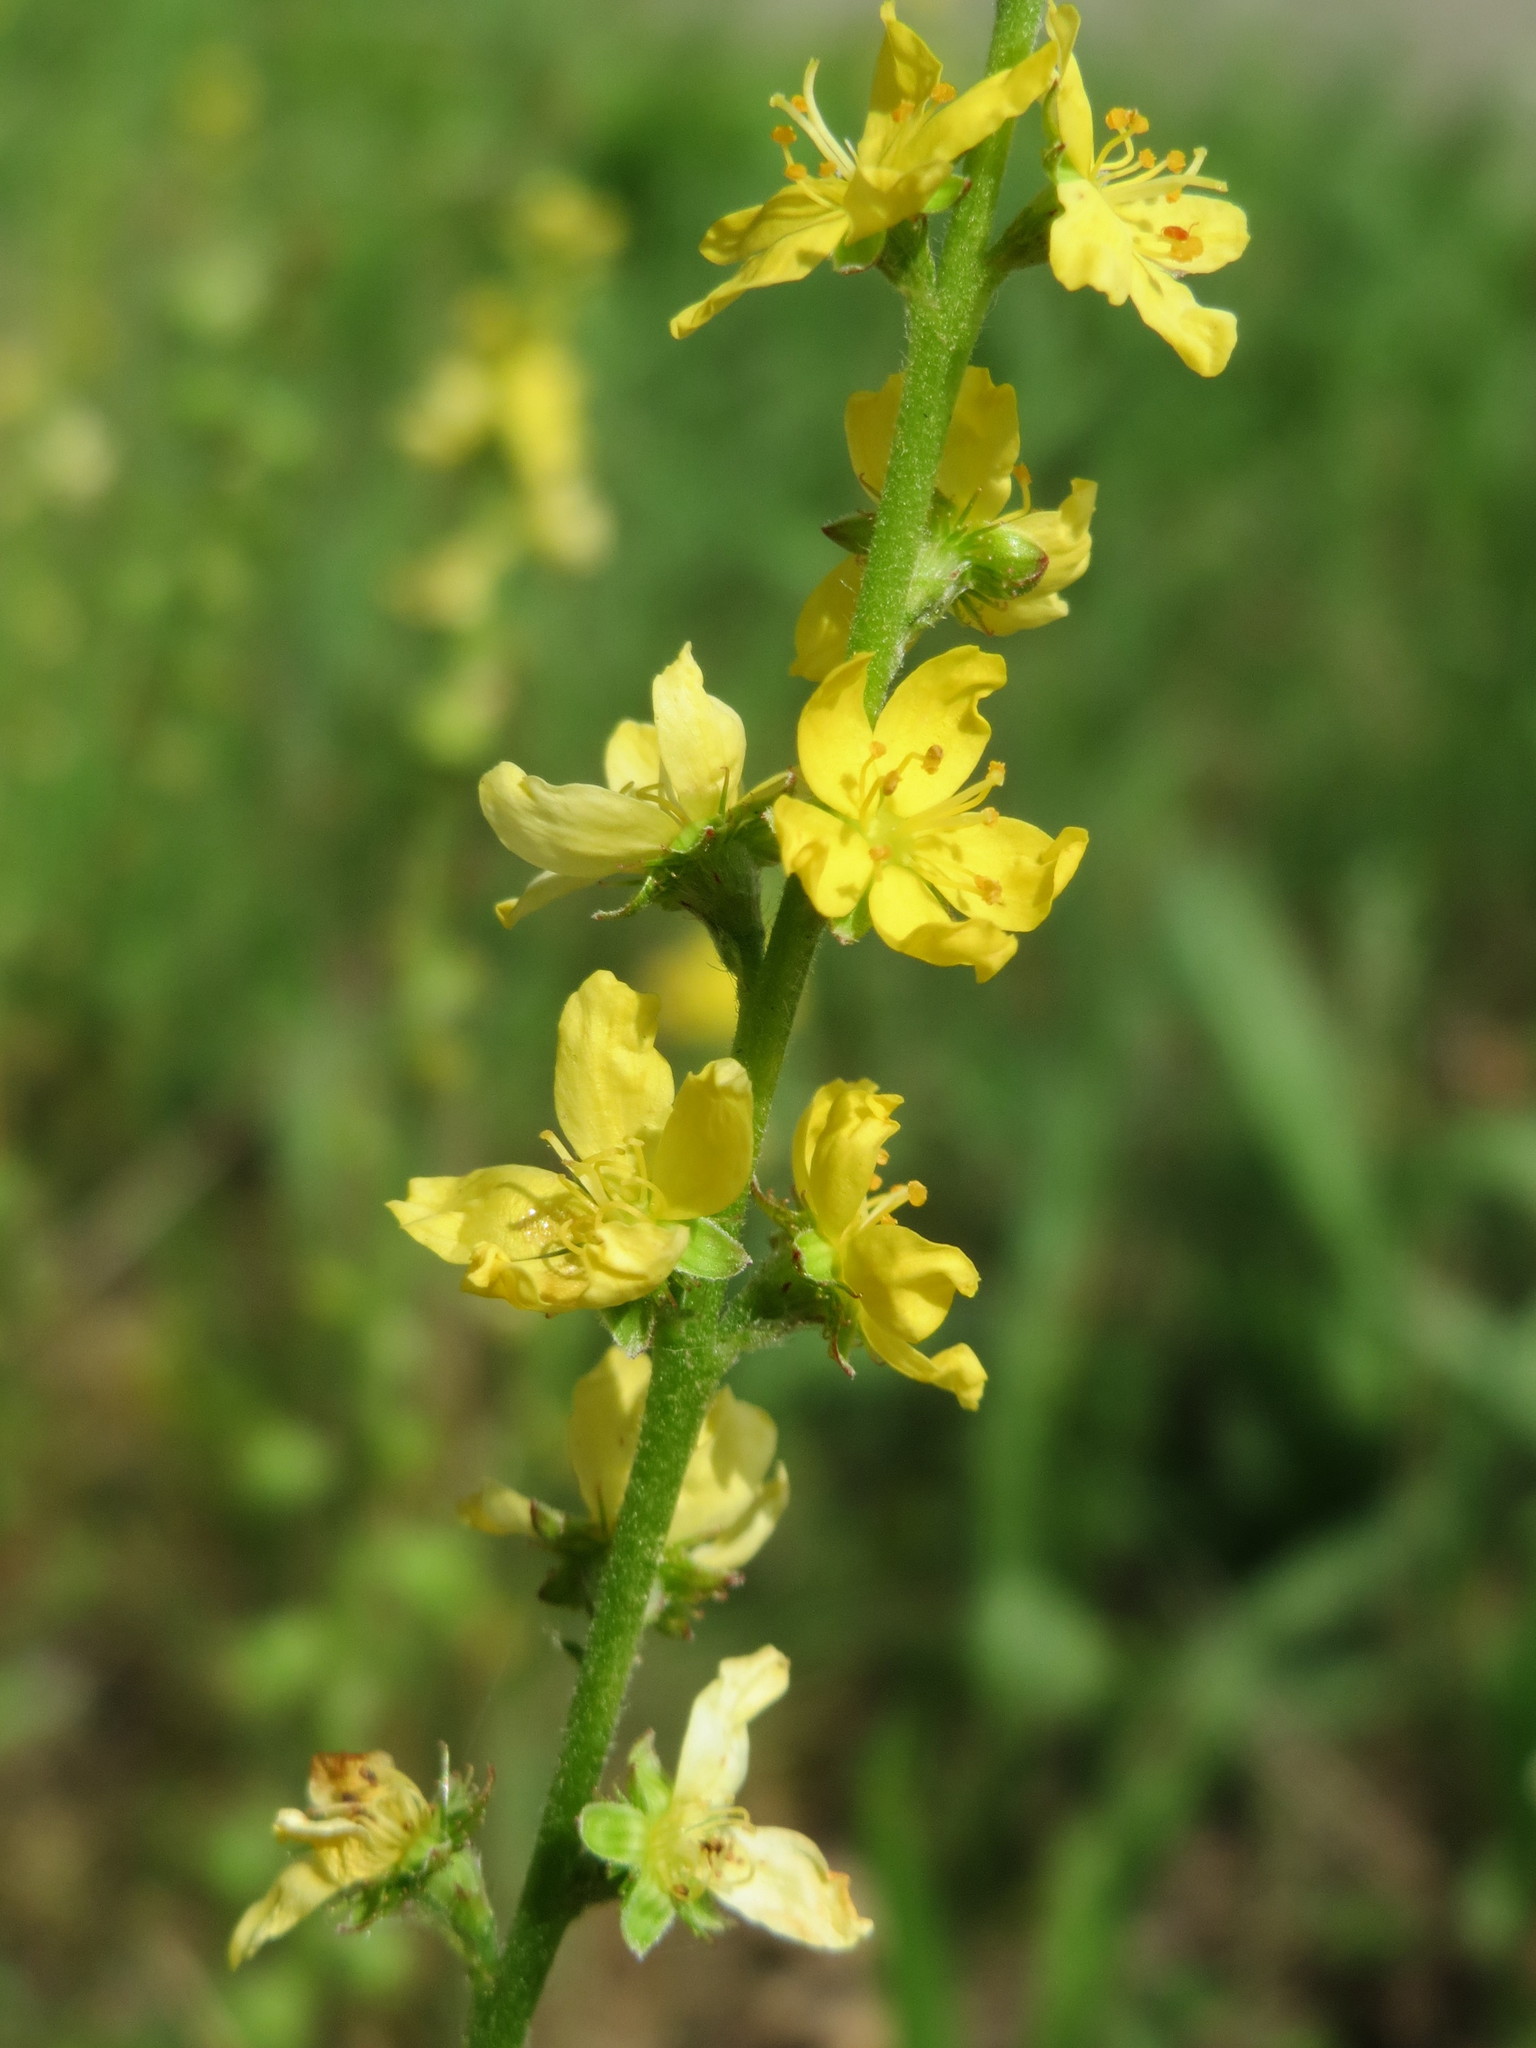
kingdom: Plantae
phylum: Tracheophyta
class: Magnoliopsida
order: Rosales
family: Rosaceae
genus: Agrimonia
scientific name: Agrimonia eupatoria
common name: Agrimony
